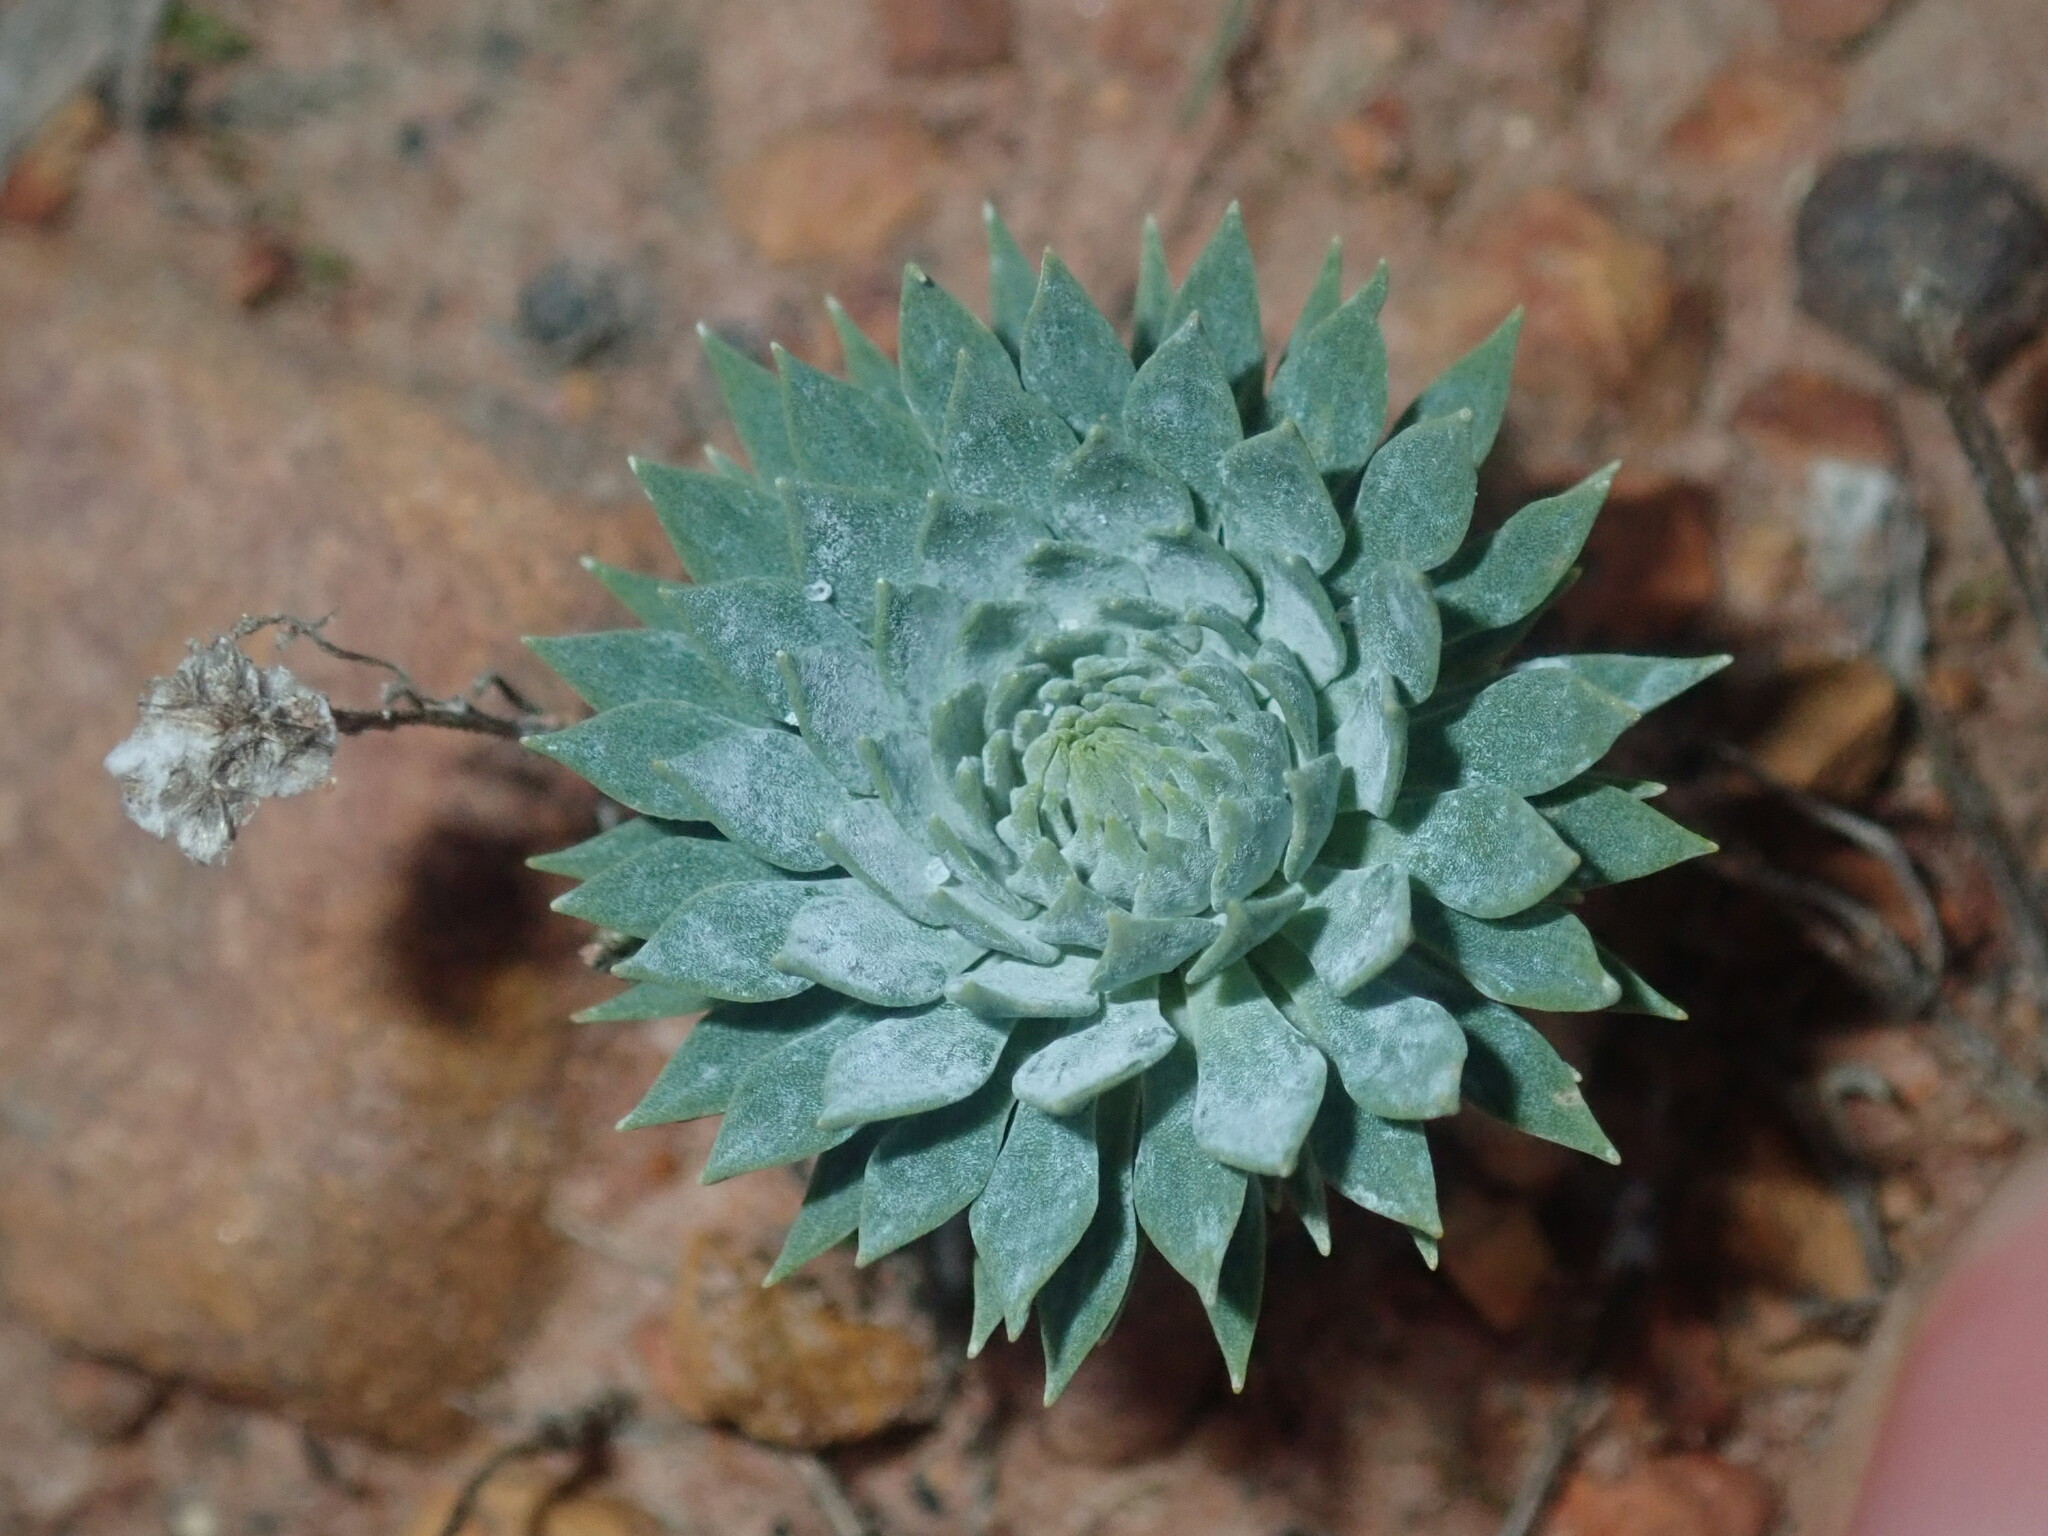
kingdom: Plantae
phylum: Tracheophyta
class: Magnoliopsida
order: Asterales
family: Stylidiaceae
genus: Stylidium
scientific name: Stylidium tenue
